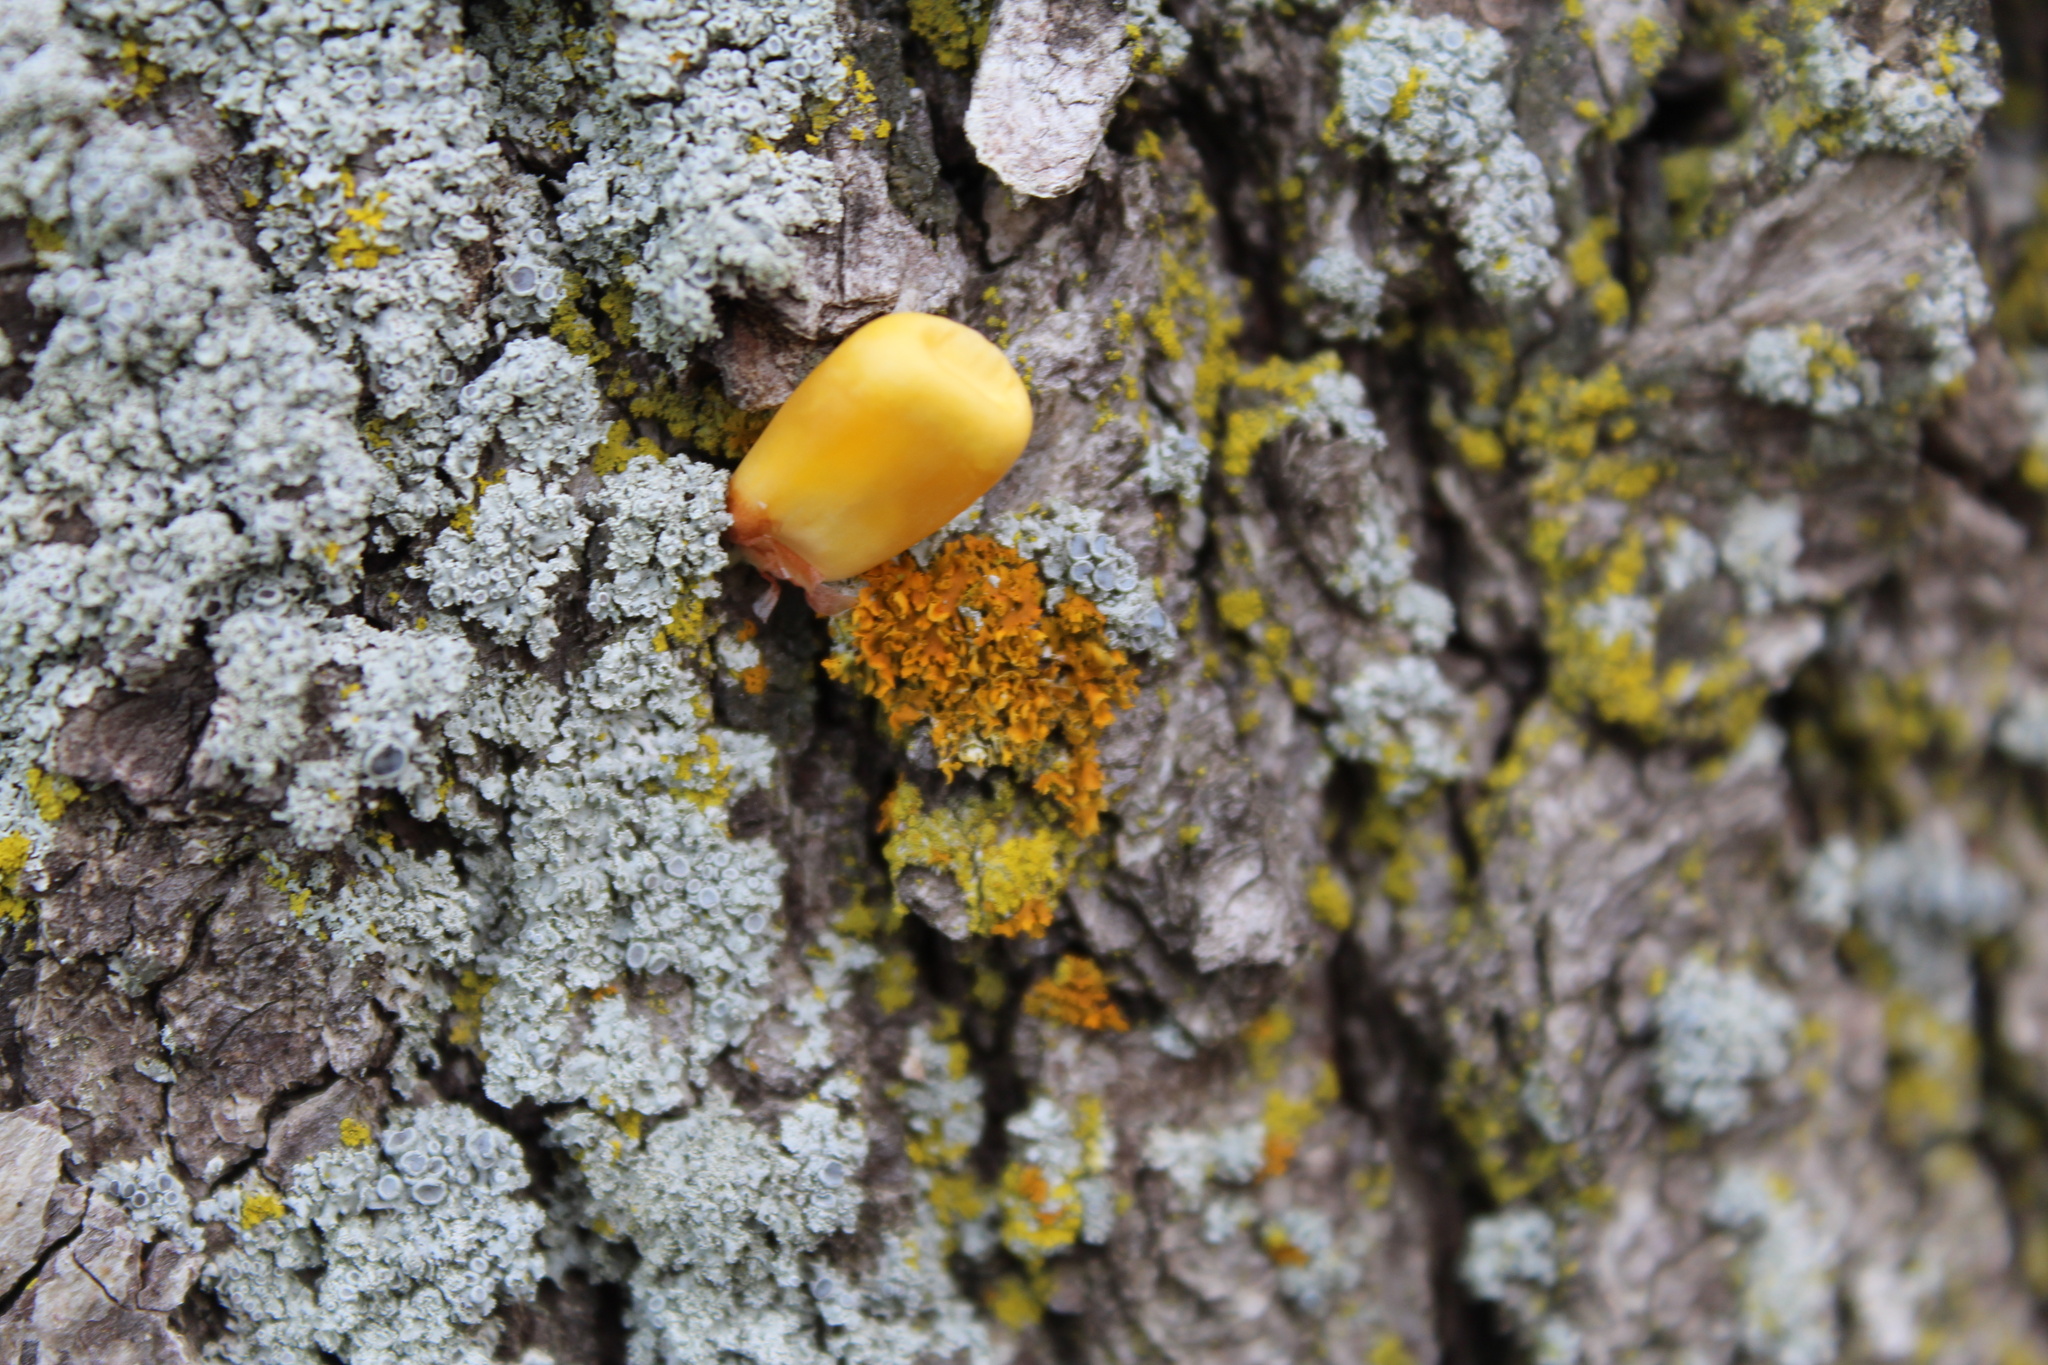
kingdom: Fungi
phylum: Ascomycota
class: Lecanoromycetes
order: Caliciales
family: Physciaceae
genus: Physcia
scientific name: Physcia millegrana
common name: Rosette lichen
